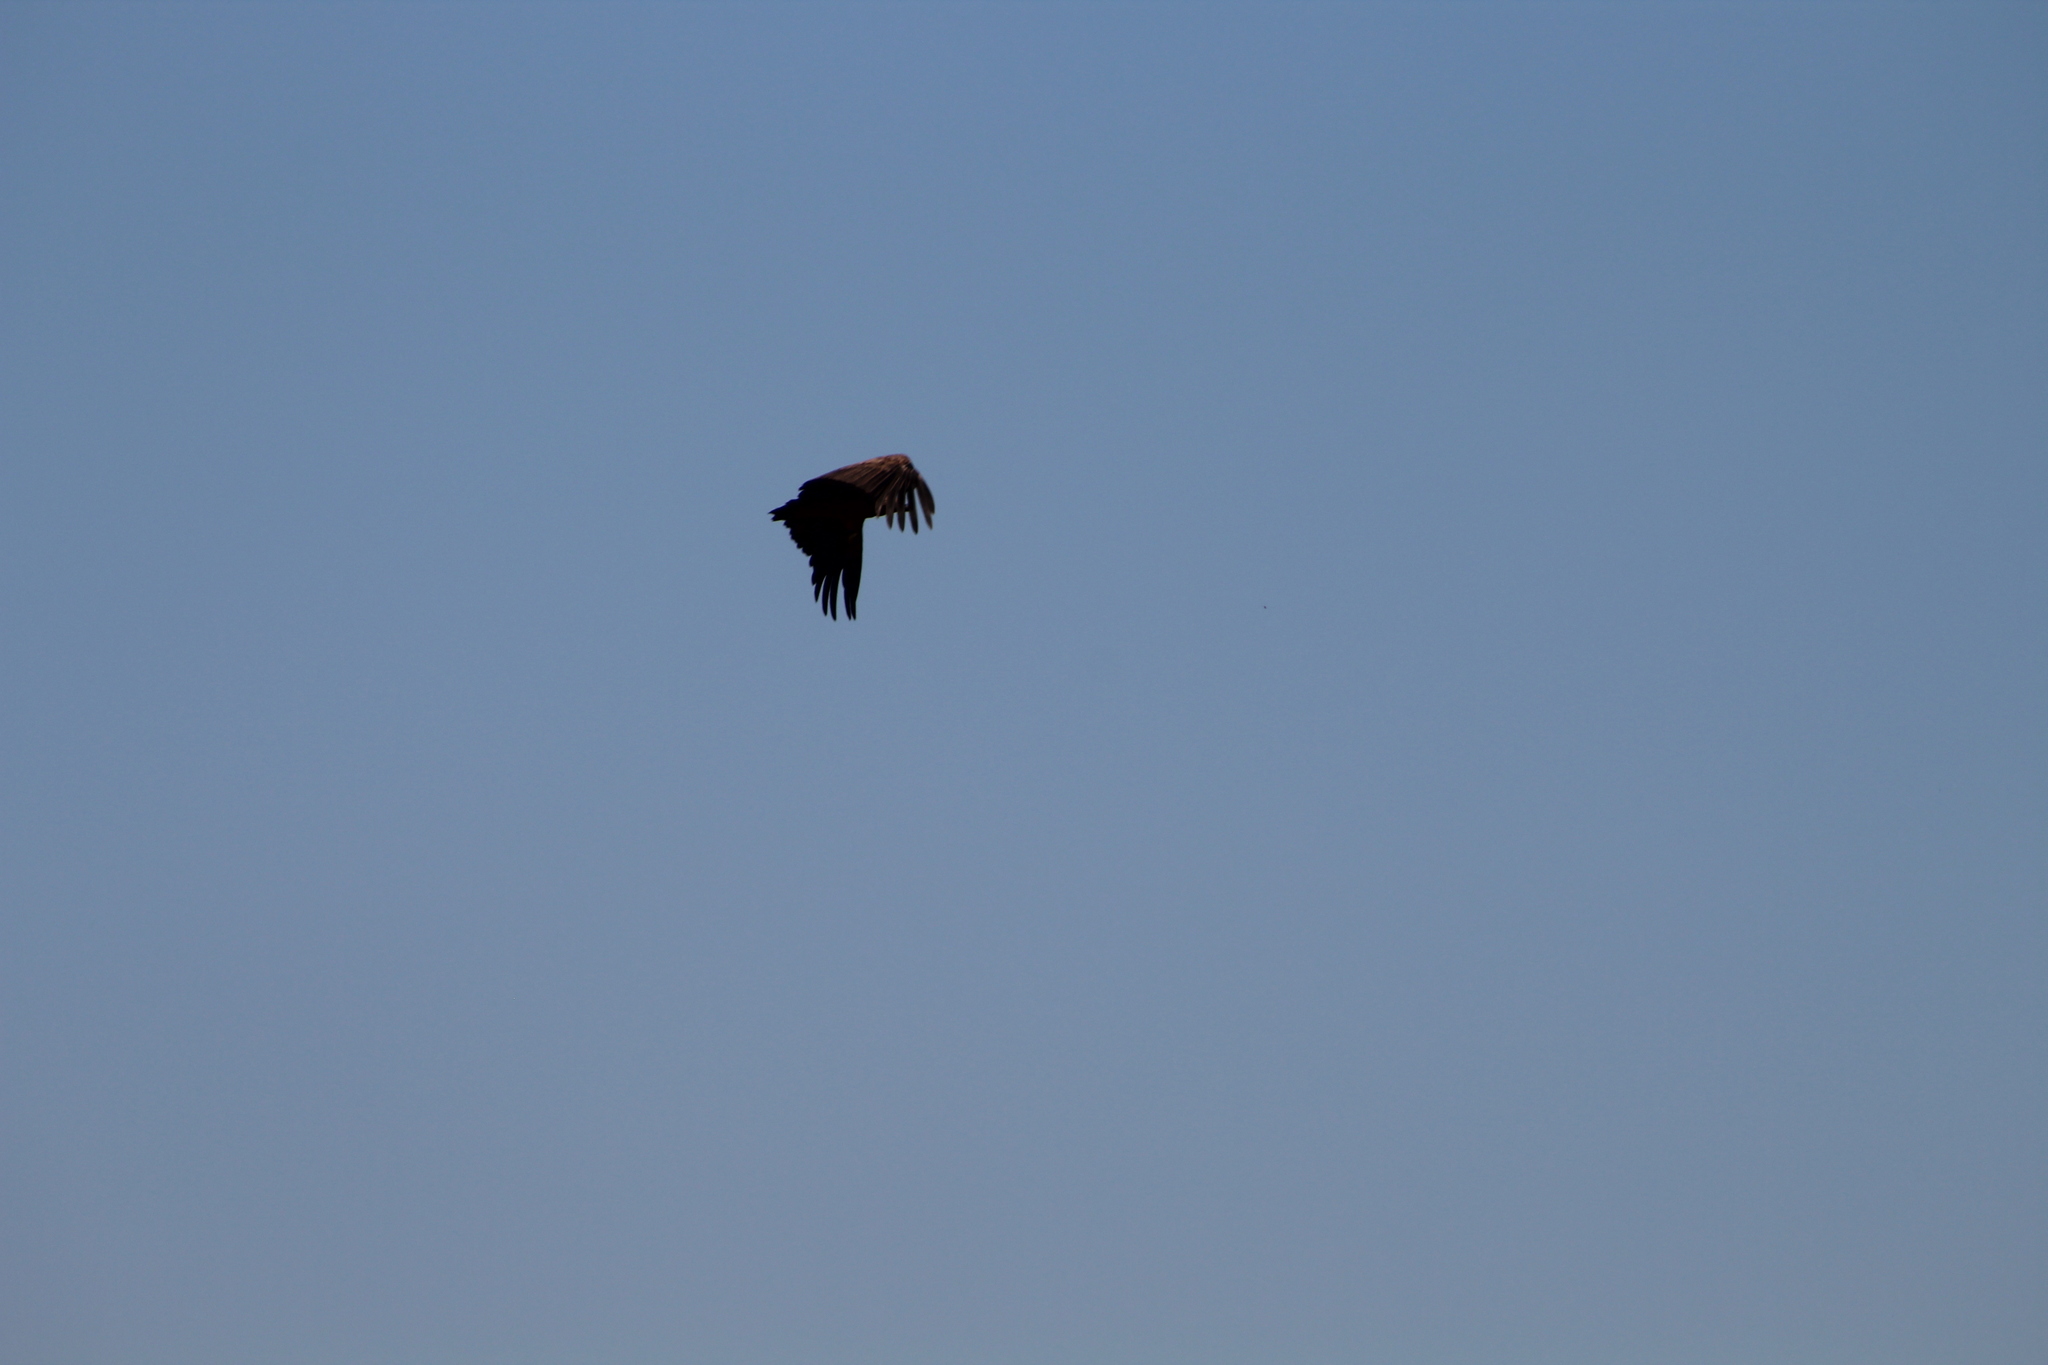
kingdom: Animalia
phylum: Chordata
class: Aves
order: Accipitriformes
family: Accipitridae
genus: Gyps
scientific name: Gyps fulvus
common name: Griffon vulture
